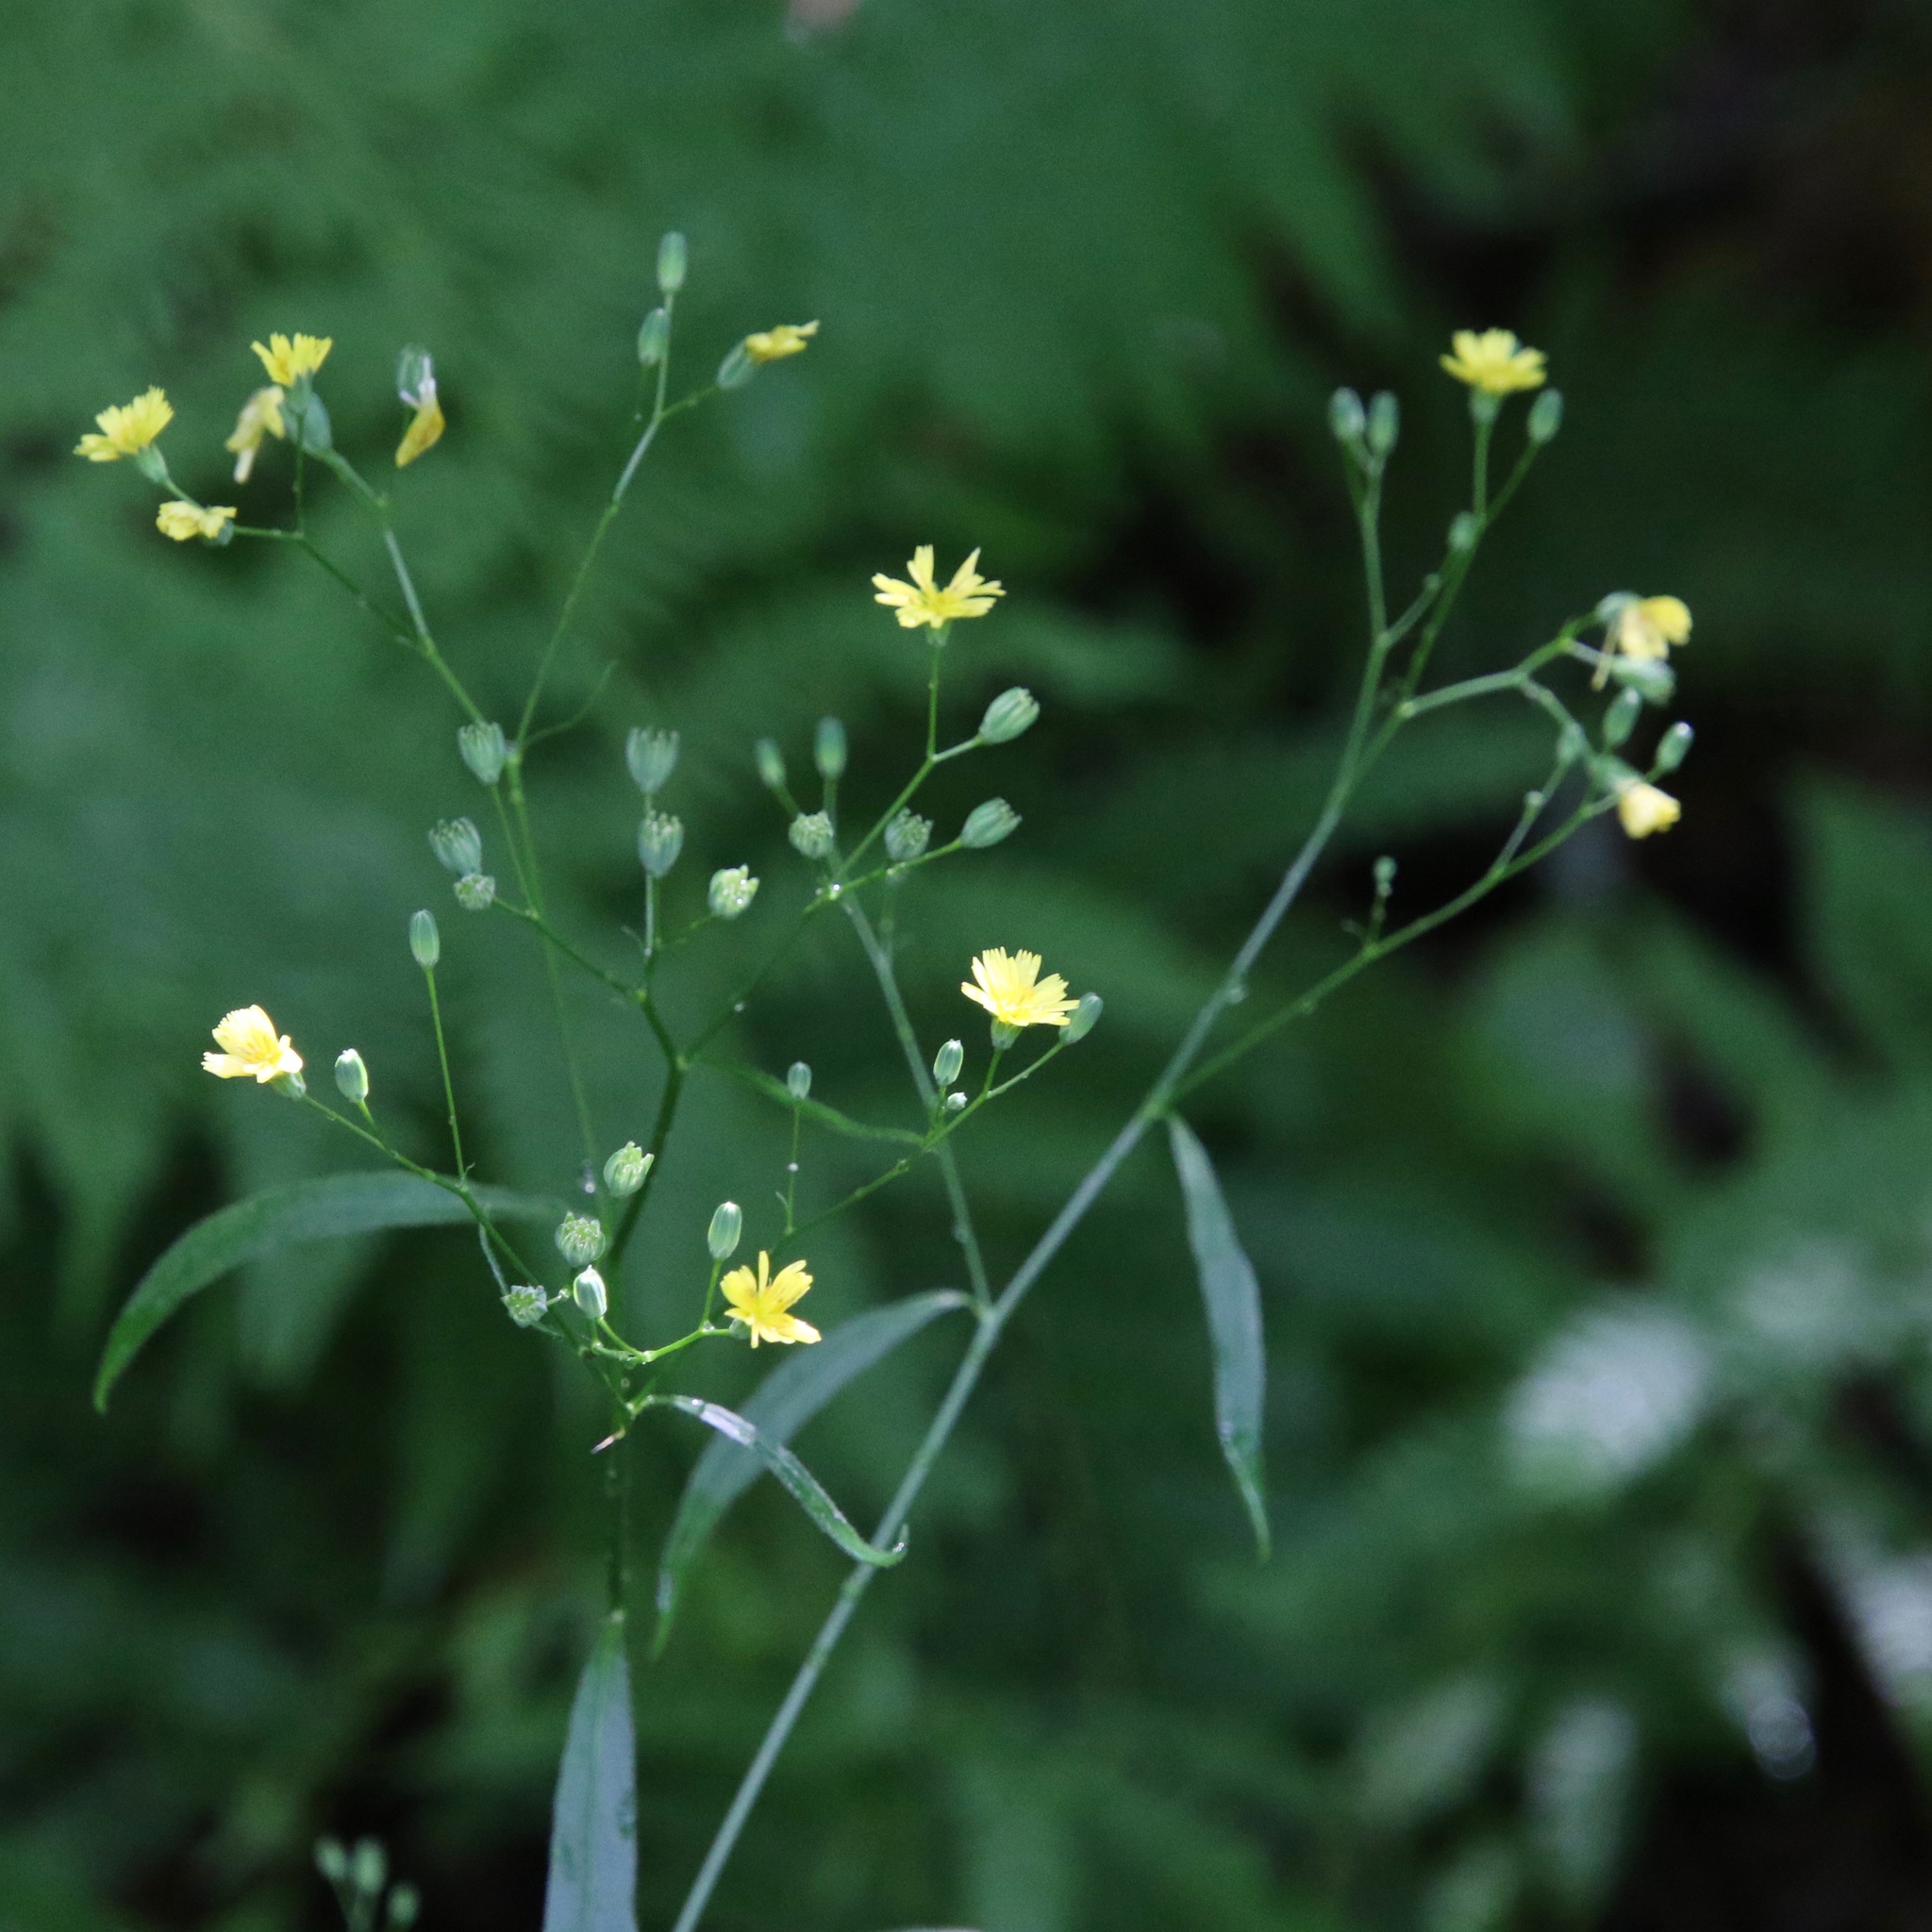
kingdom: Plantae
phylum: Tracheophyta
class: Magnoliopsida
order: Asterales
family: Asteraceae
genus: Lapsana
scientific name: Lapsana communis
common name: Nipplewort
